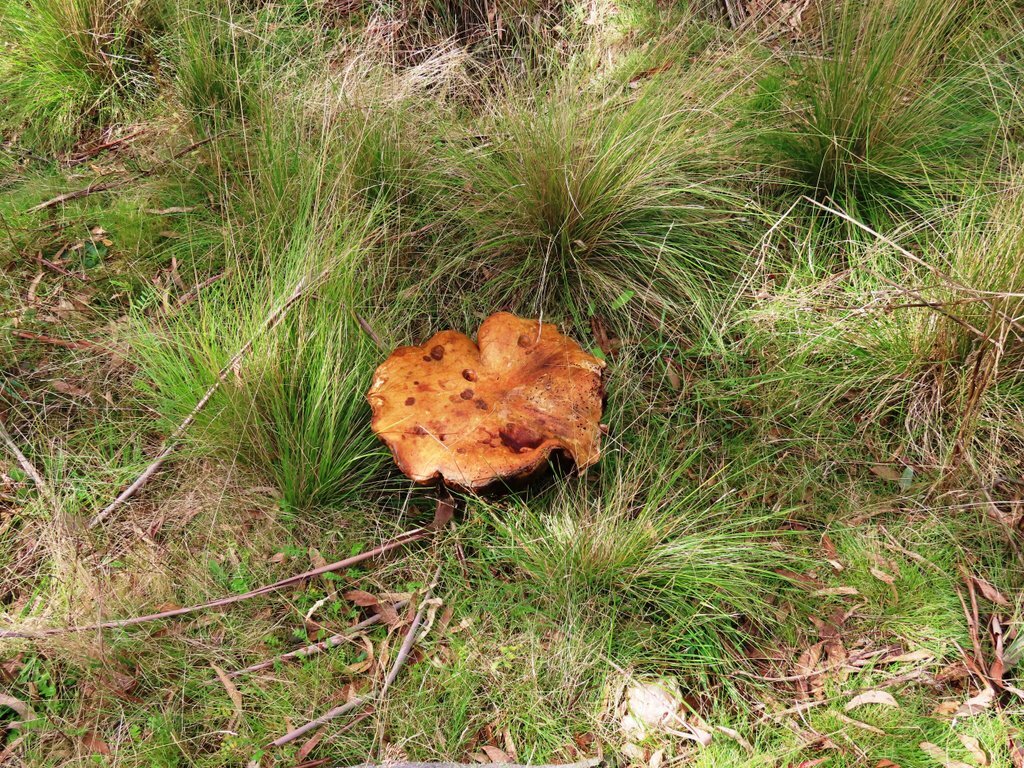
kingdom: Fungi
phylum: Basidiomycota
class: Agaricomycetes
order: Boletales
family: Boletinellaceae
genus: Phlebopus
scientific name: Phlebopus marginatus
